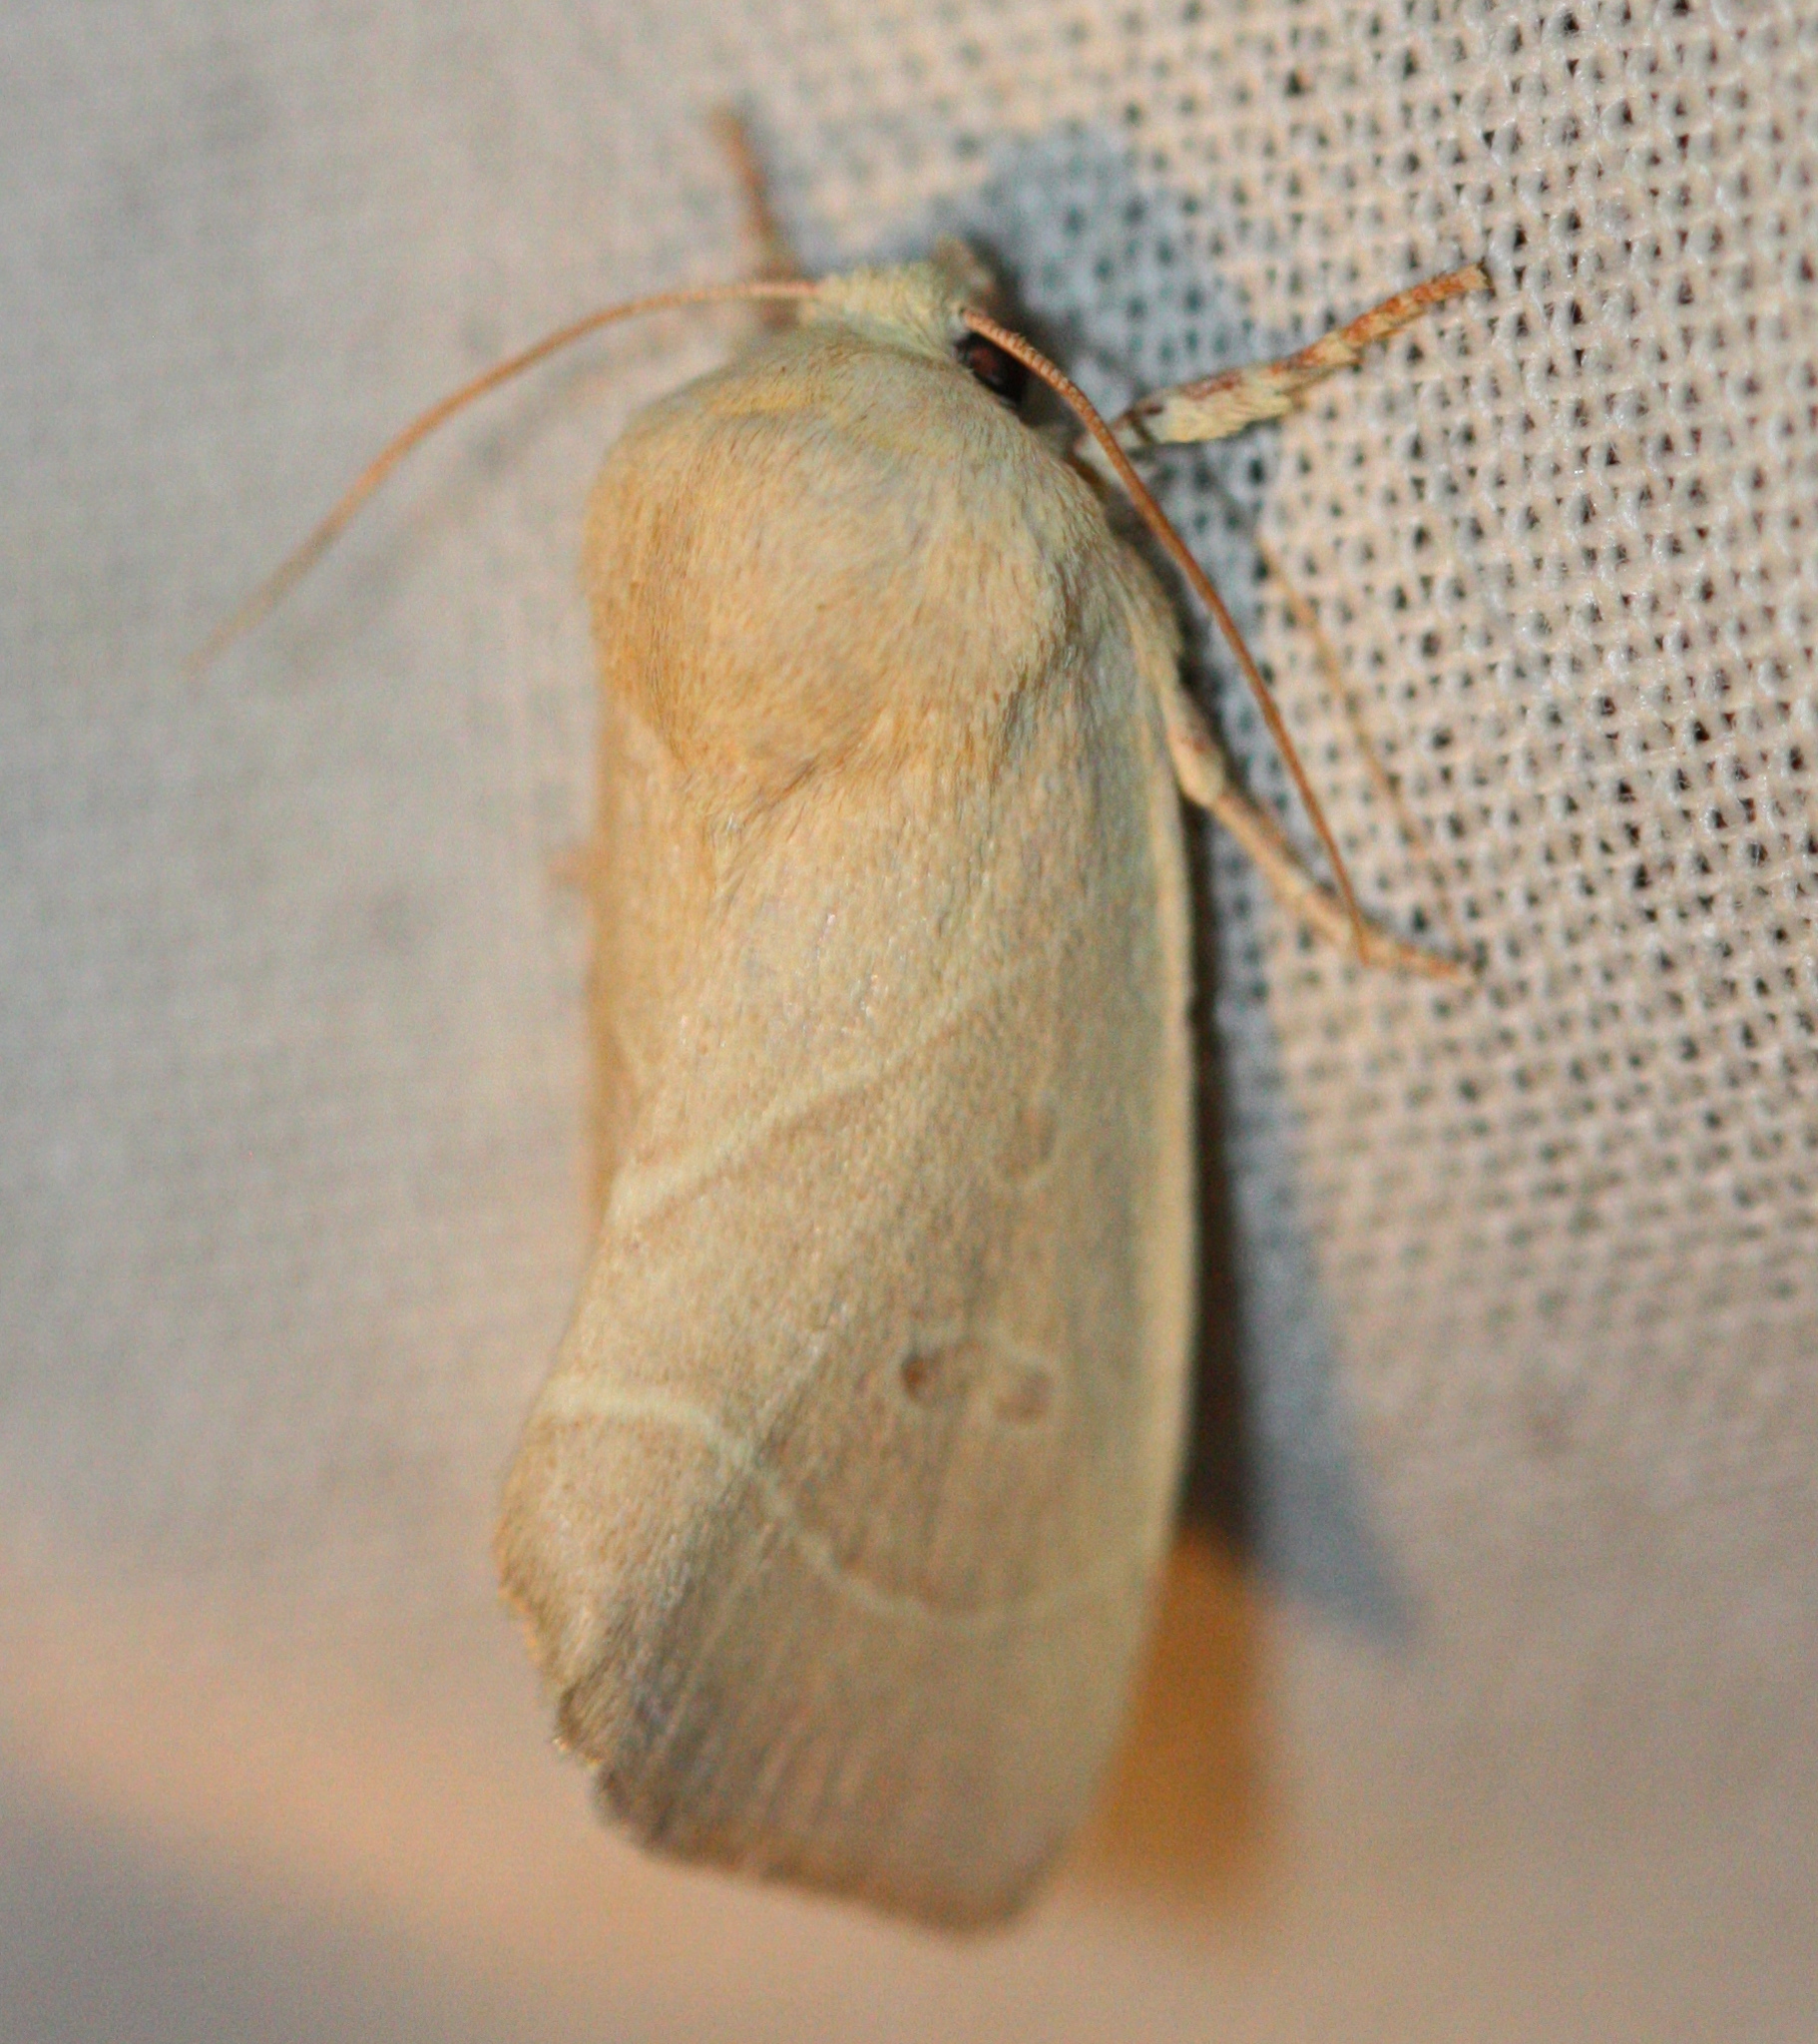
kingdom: Animalia
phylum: Arthropoda
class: Insecta
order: Lepidoptera
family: Noctuidae
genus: Cosmia
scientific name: Cosmia calami
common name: American dun-bar moth
